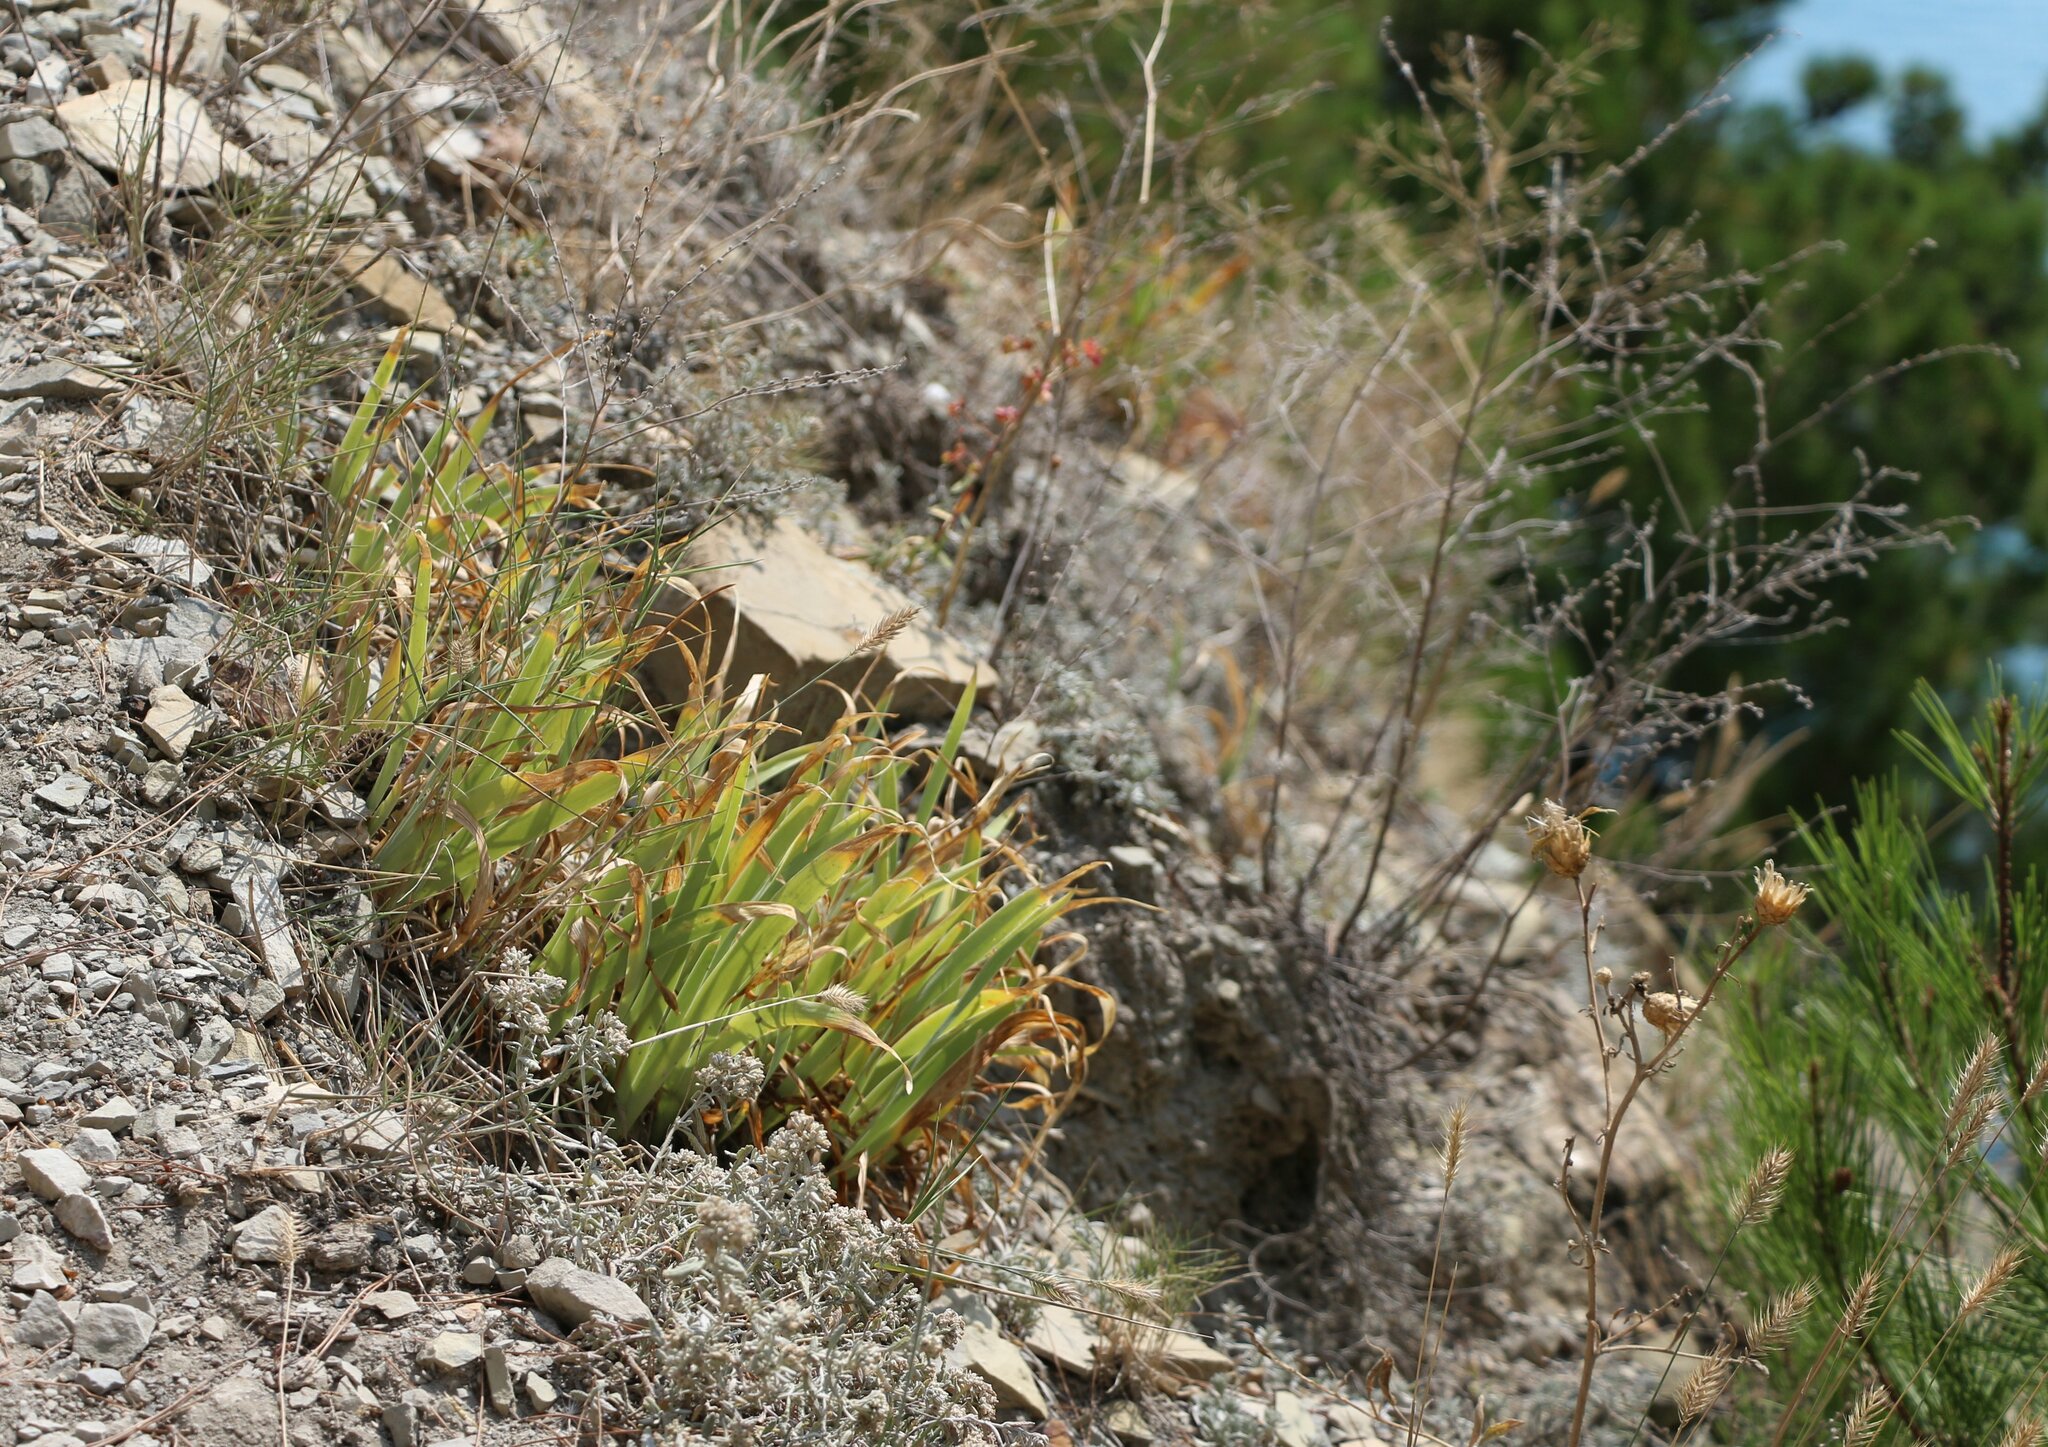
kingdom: Plantae
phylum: Tracheophyta
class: Liliopsida
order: Asparagales
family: Iridaceae
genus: Iris
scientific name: Iris pumila
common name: Dwarf iris
